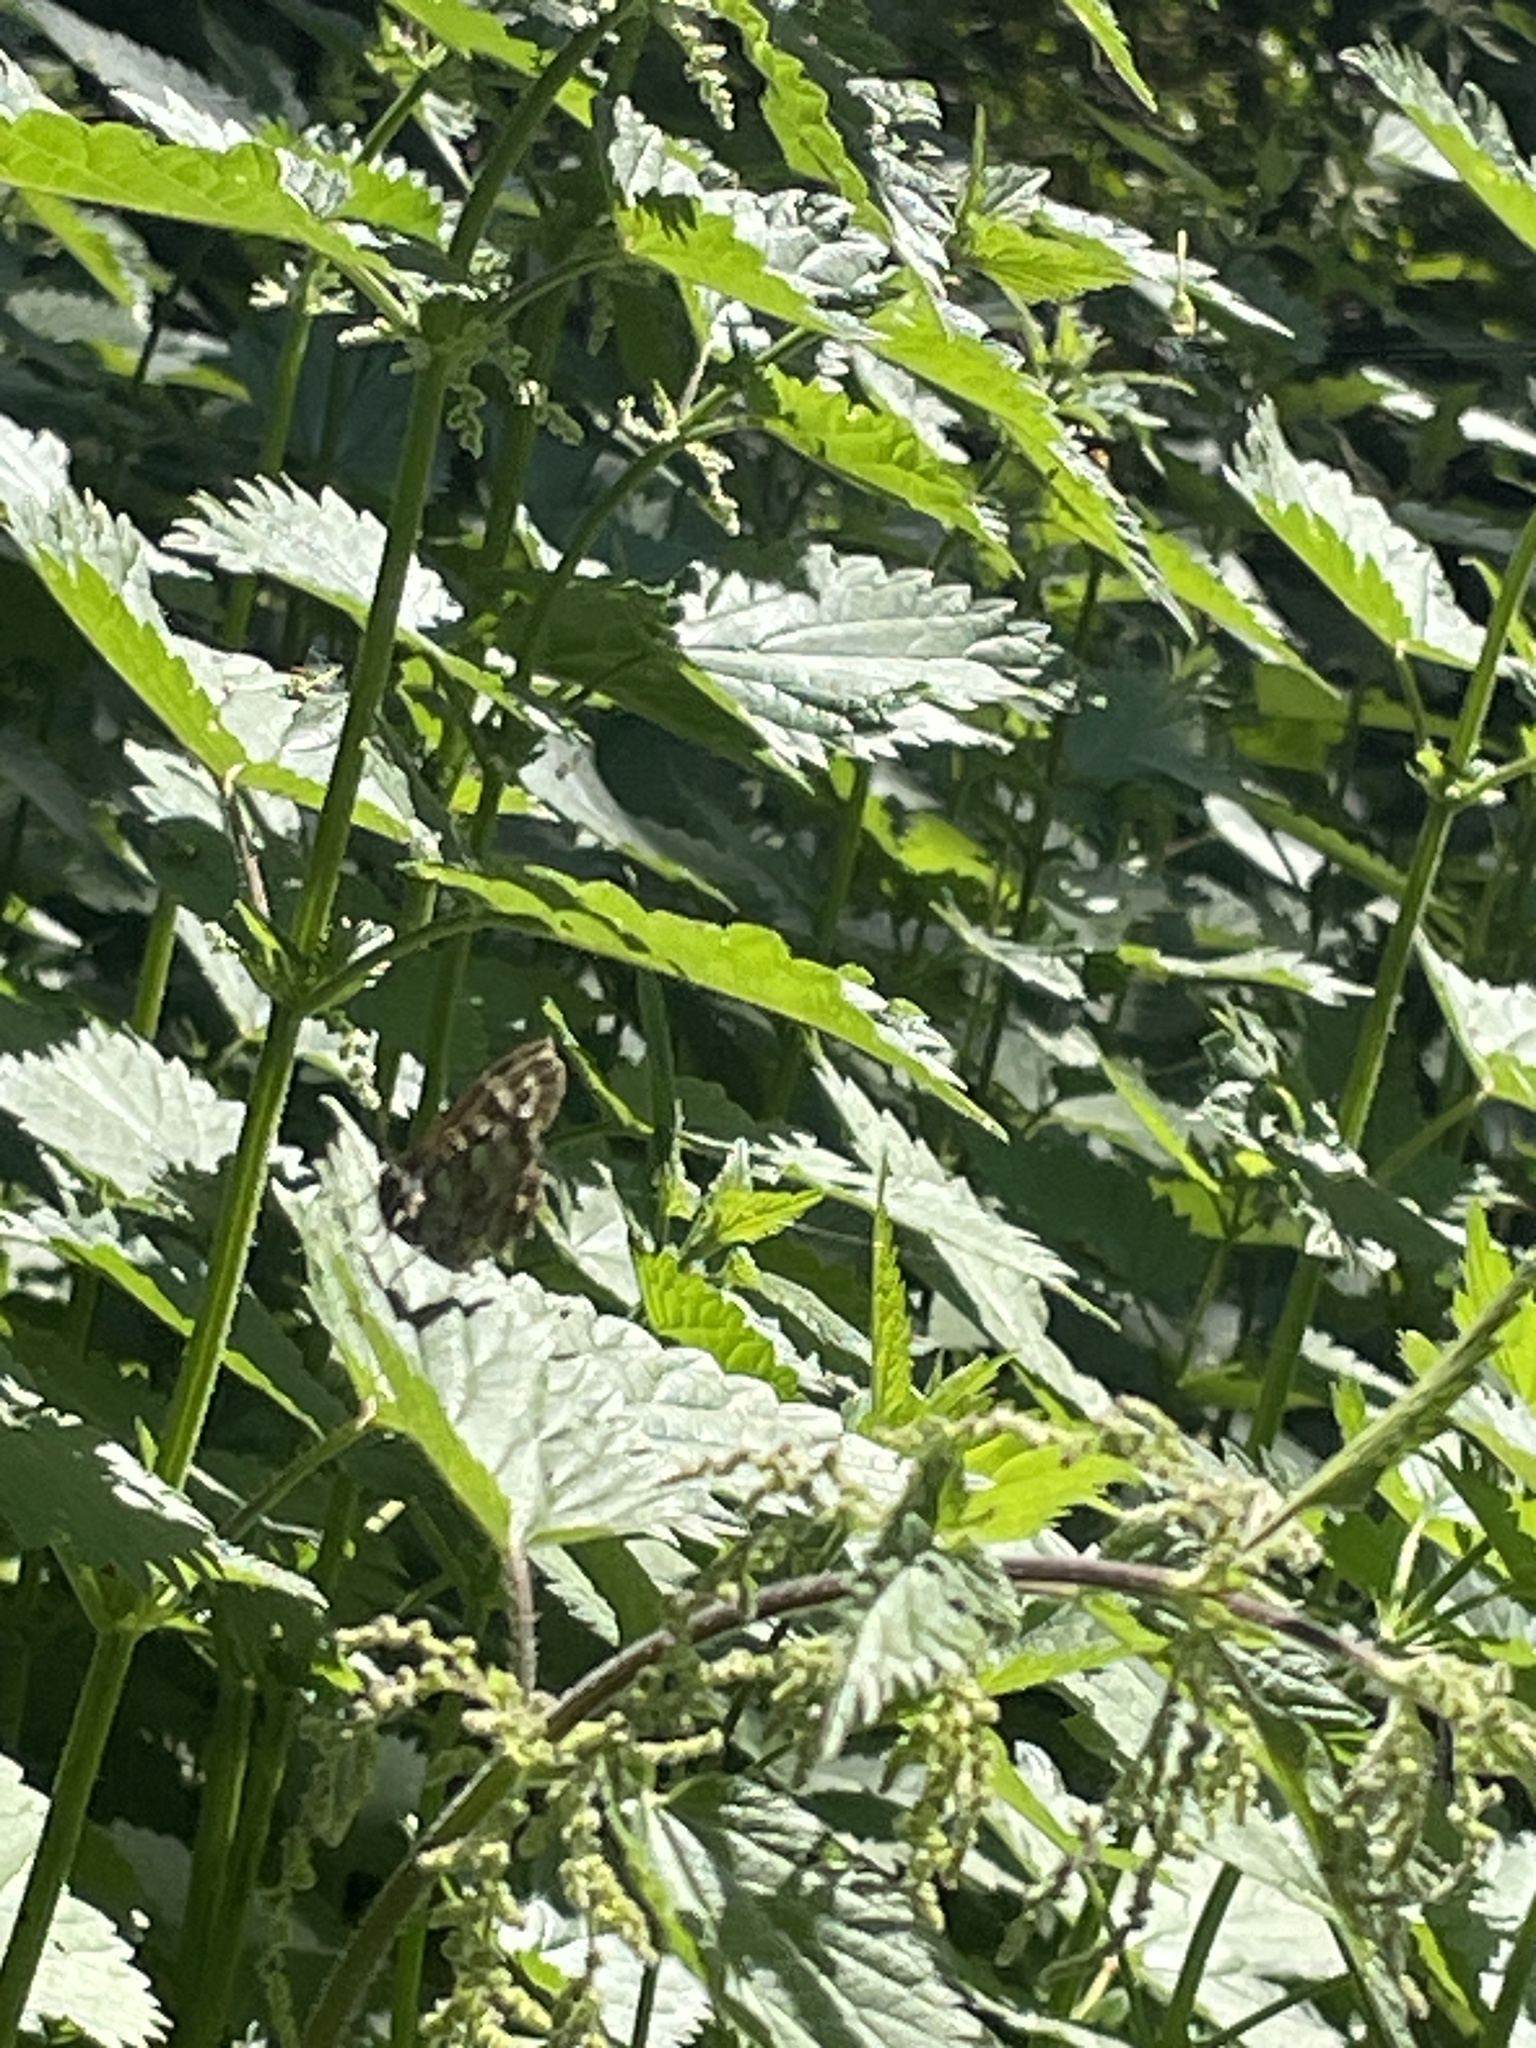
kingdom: Animalia
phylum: Arthropoda
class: Insecta
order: Lepidoptera
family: Nymphalidae
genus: Pararge
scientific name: Pararge aegeria
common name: Speckled wood
